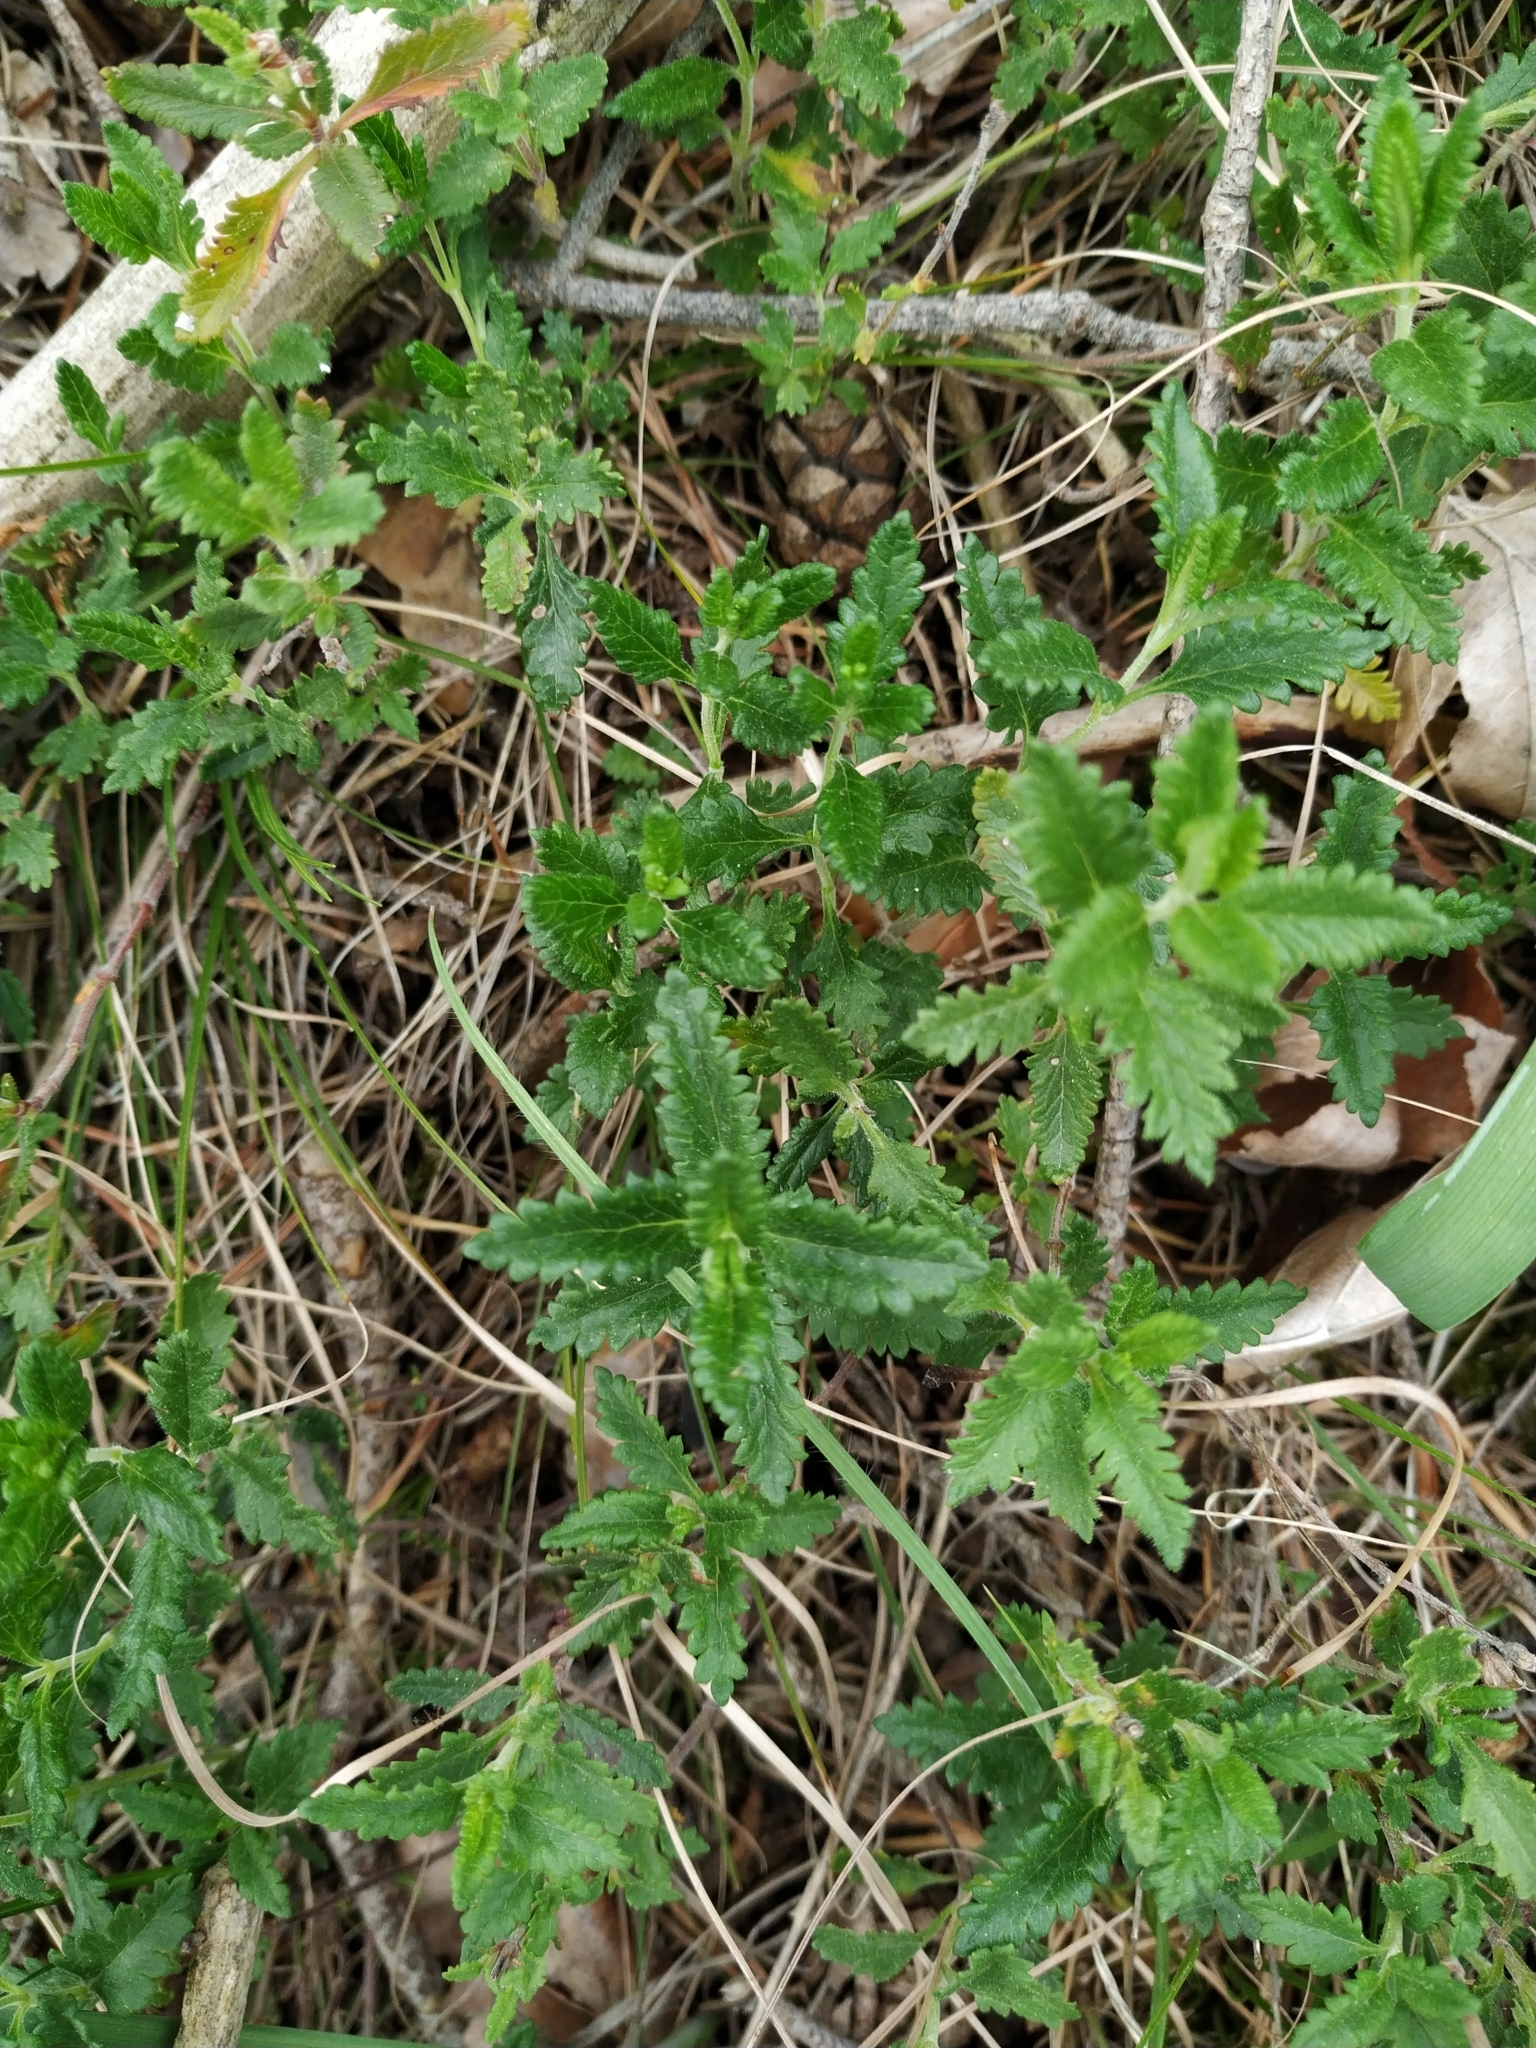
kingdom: Plantae
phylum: Tracheophyta
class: Magnoliopsida
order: Lamiales
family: Lamiaceae
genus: Teucrium
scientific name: Teucrium chamaedrys
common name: Wall germander
